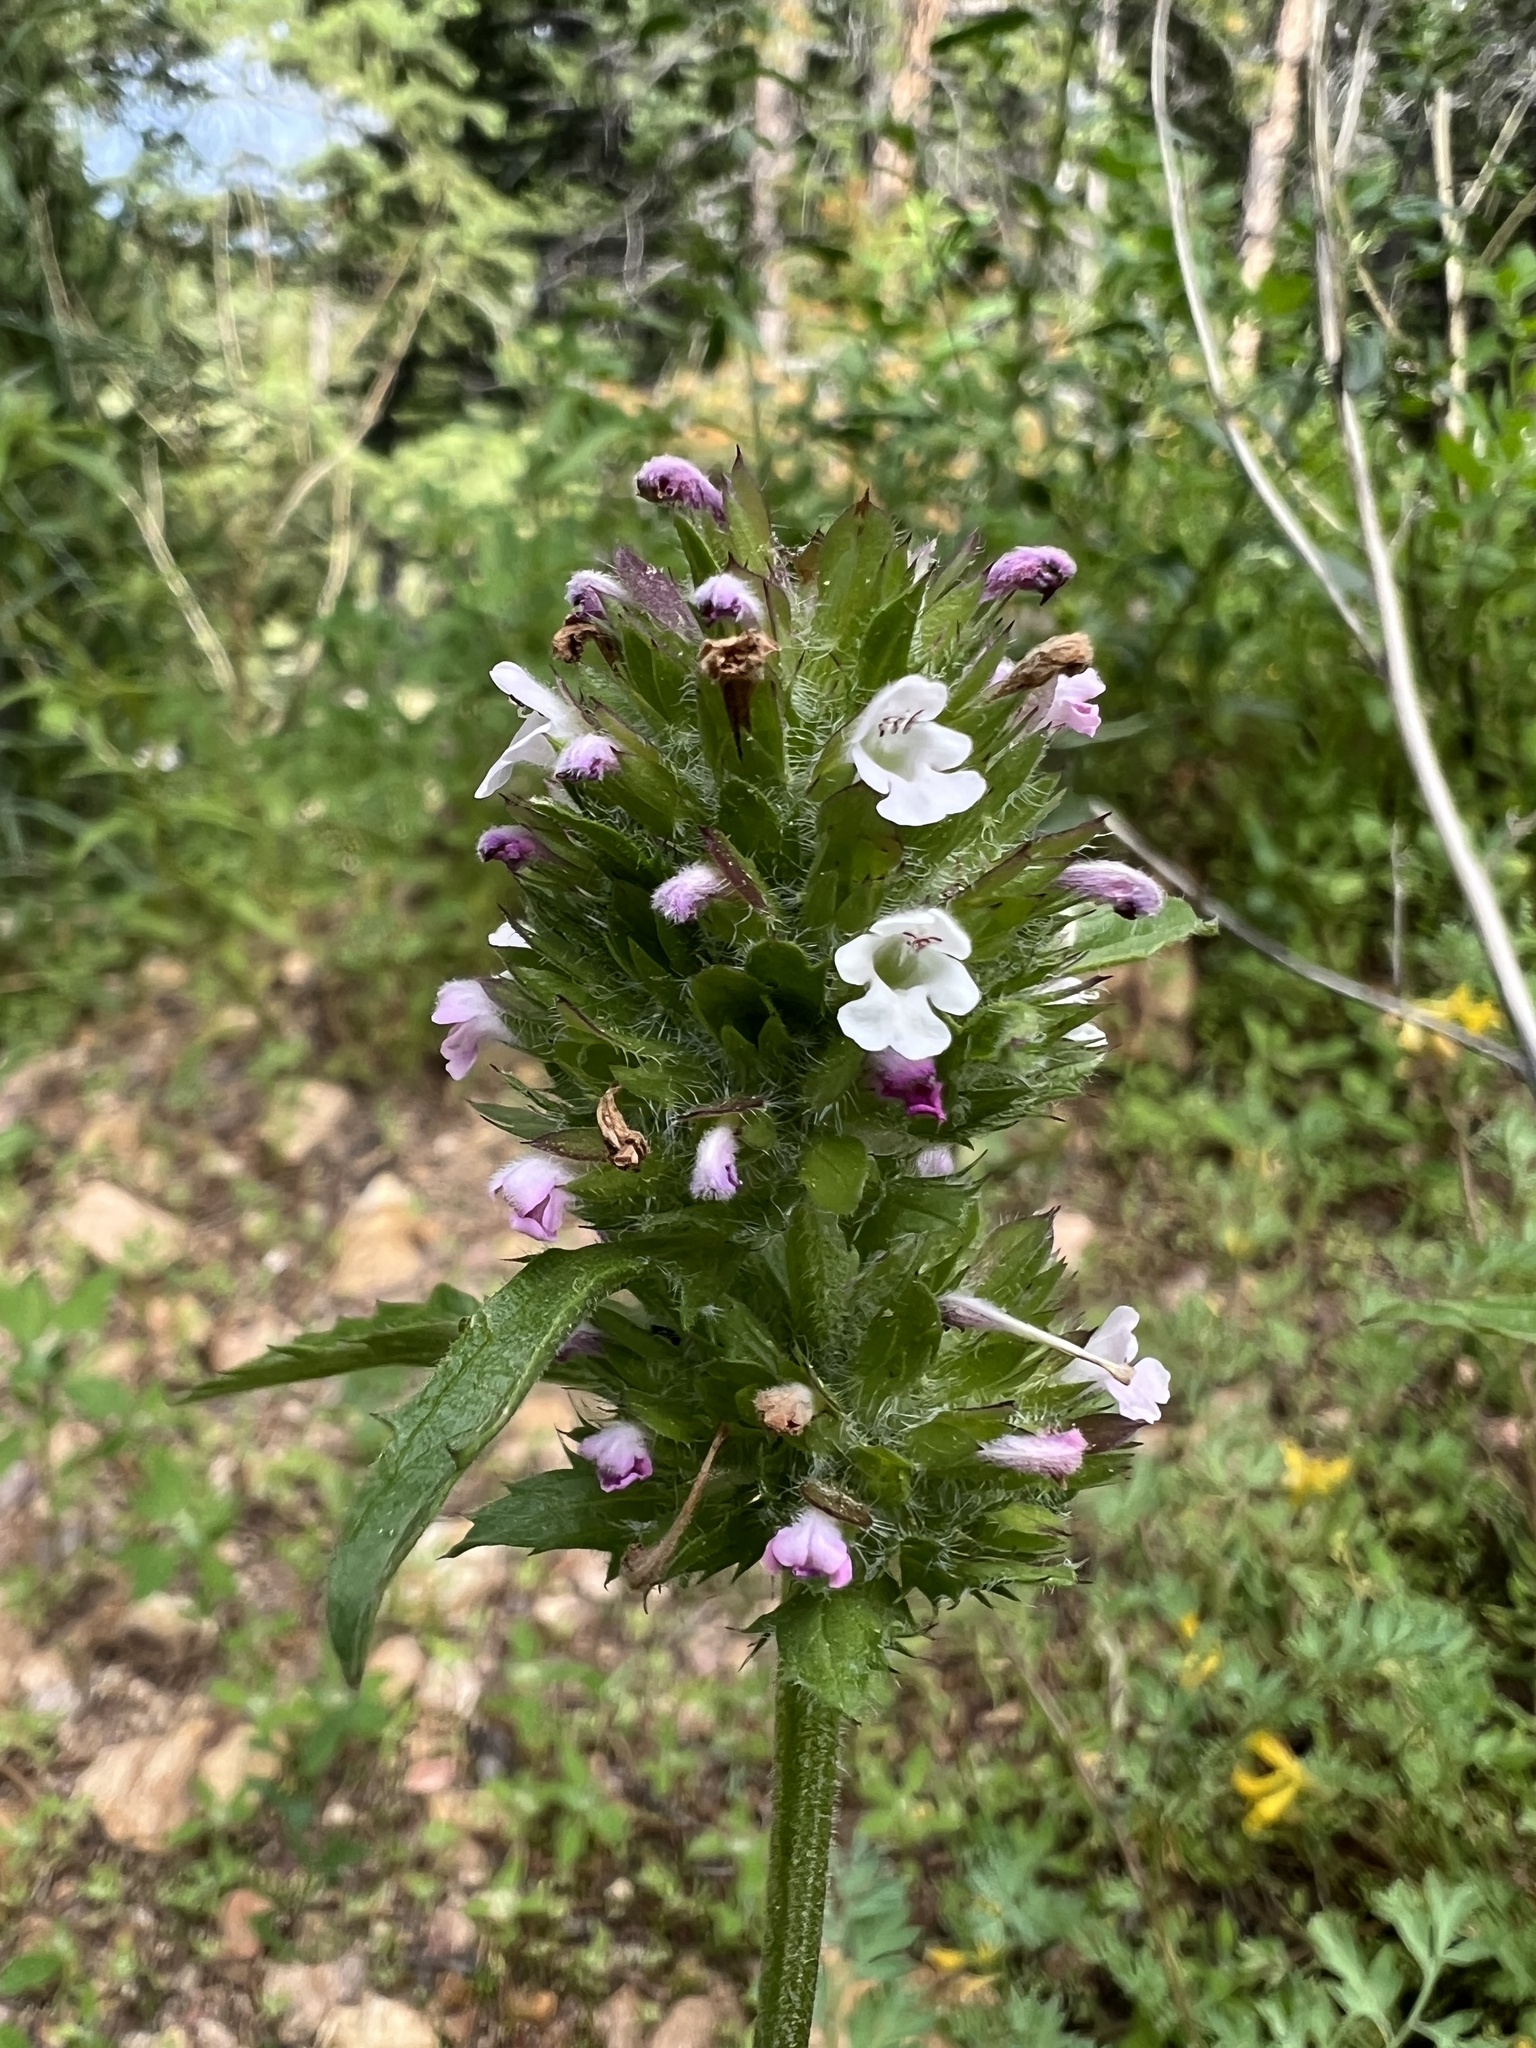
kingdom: Plantae
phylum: Tracheophyta
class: Magnoliopsida
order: Lamiales
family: Lamiaceae
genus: Dracocephalum
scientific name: Dracocephalum parviflorum
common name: American dragonhead
